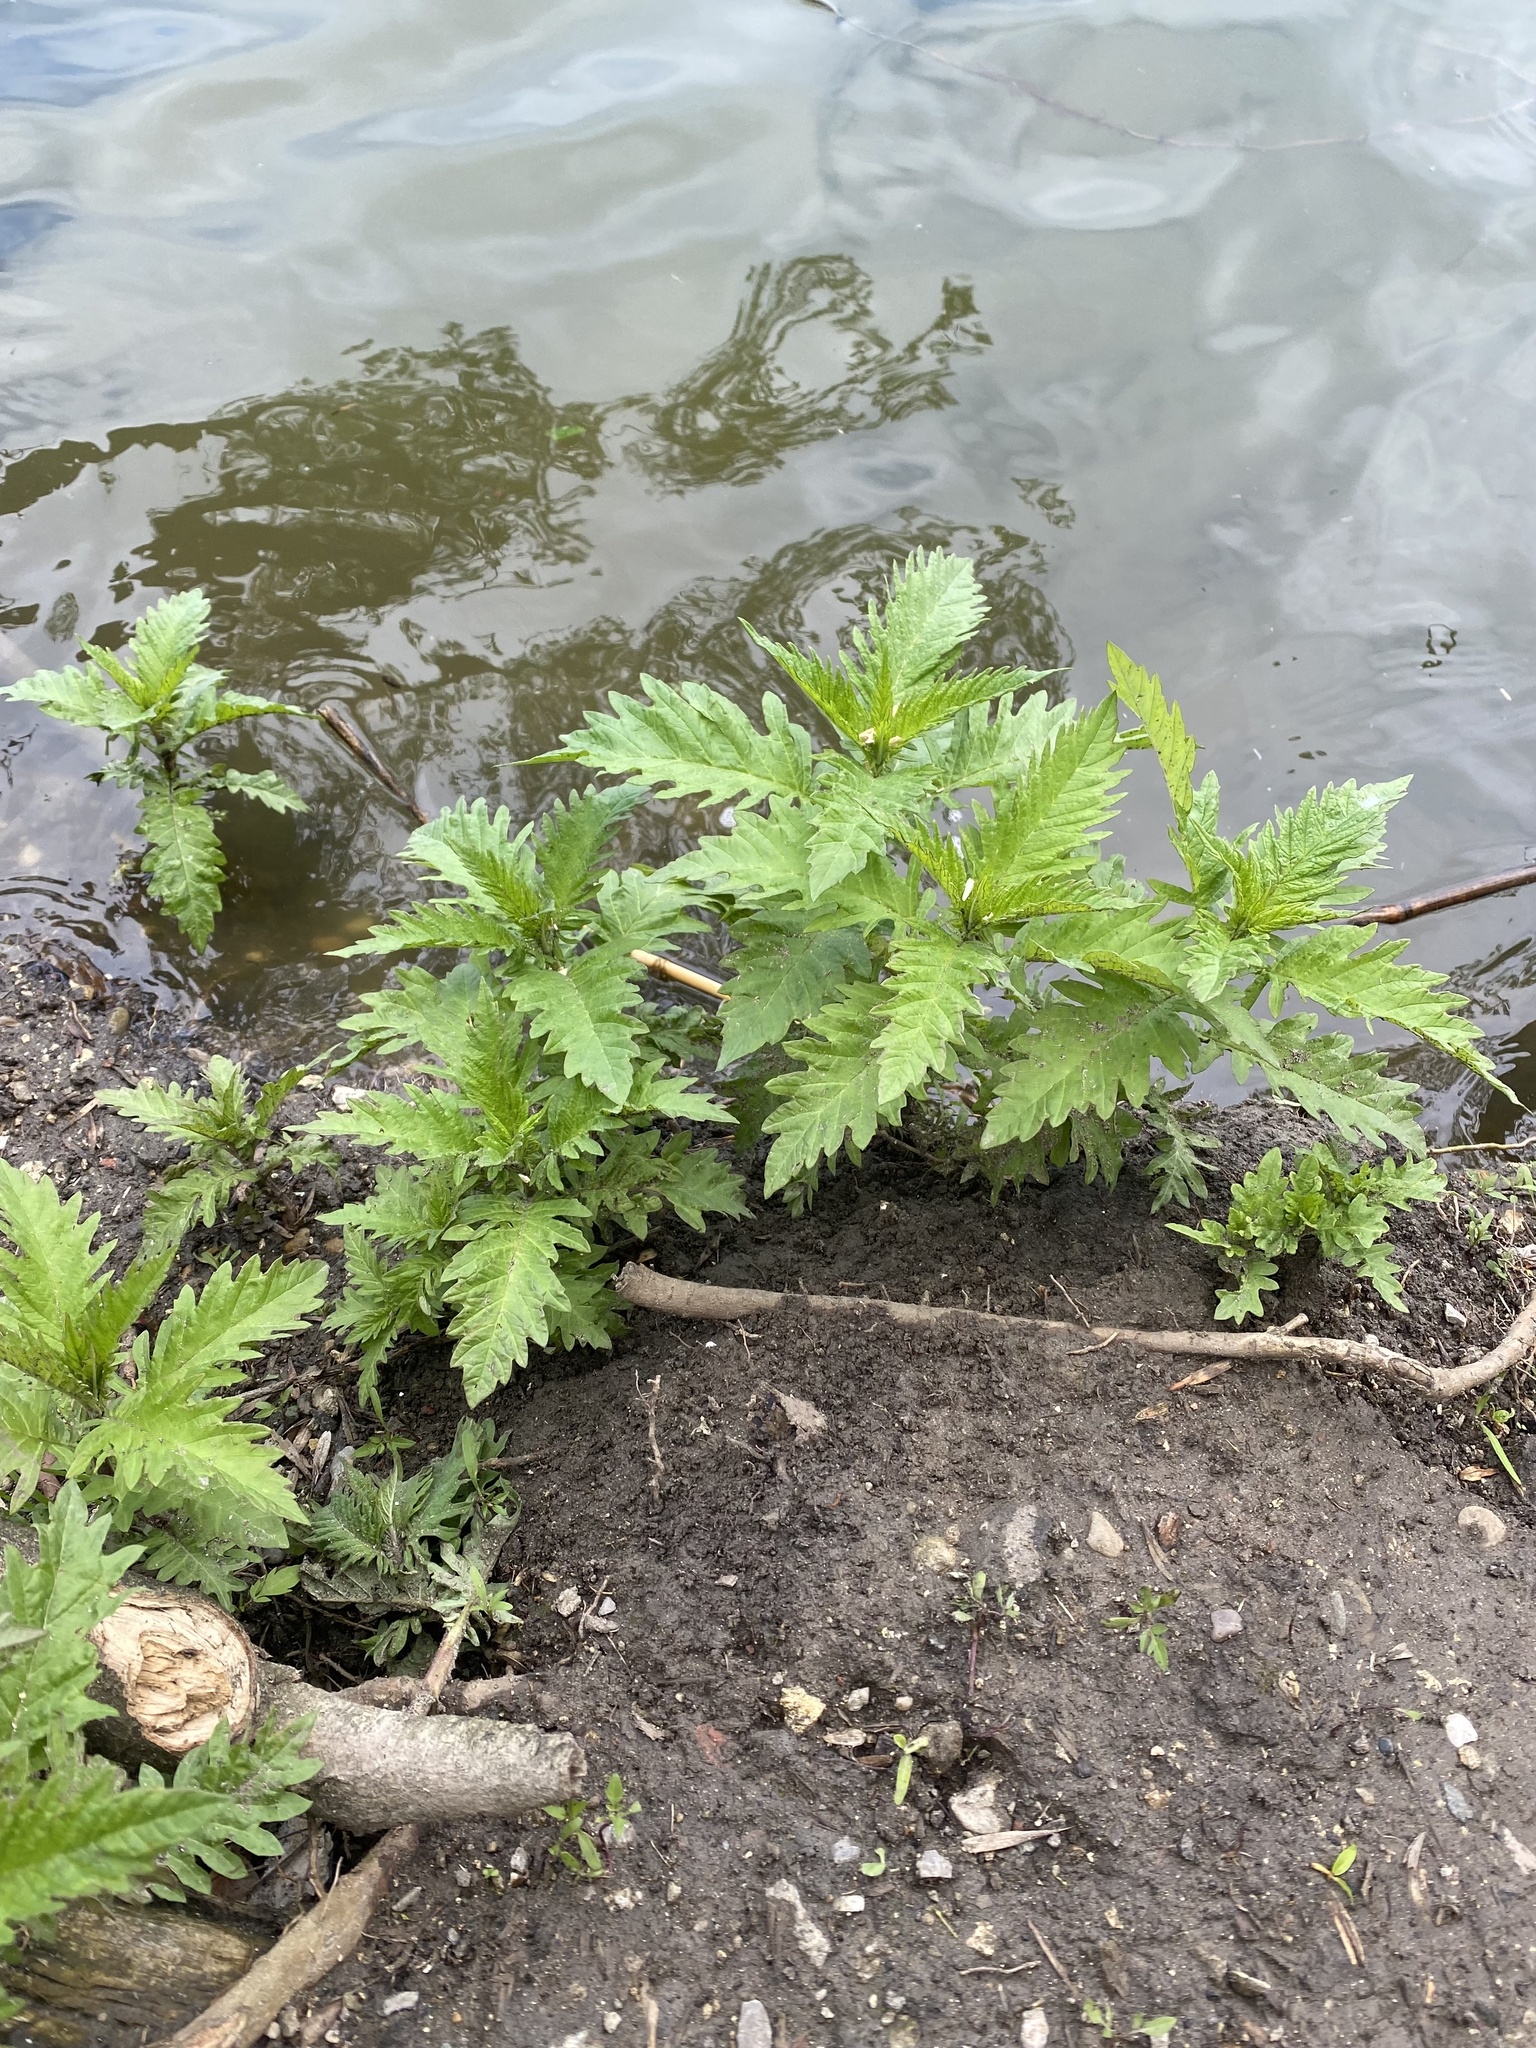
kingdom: Plantae
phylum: Tracheophyta
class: Magnoliopsida
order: Lamiales
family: Lamiaceae
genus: Lycopus
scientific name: Lycopus europaeus
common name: European bugleweed
